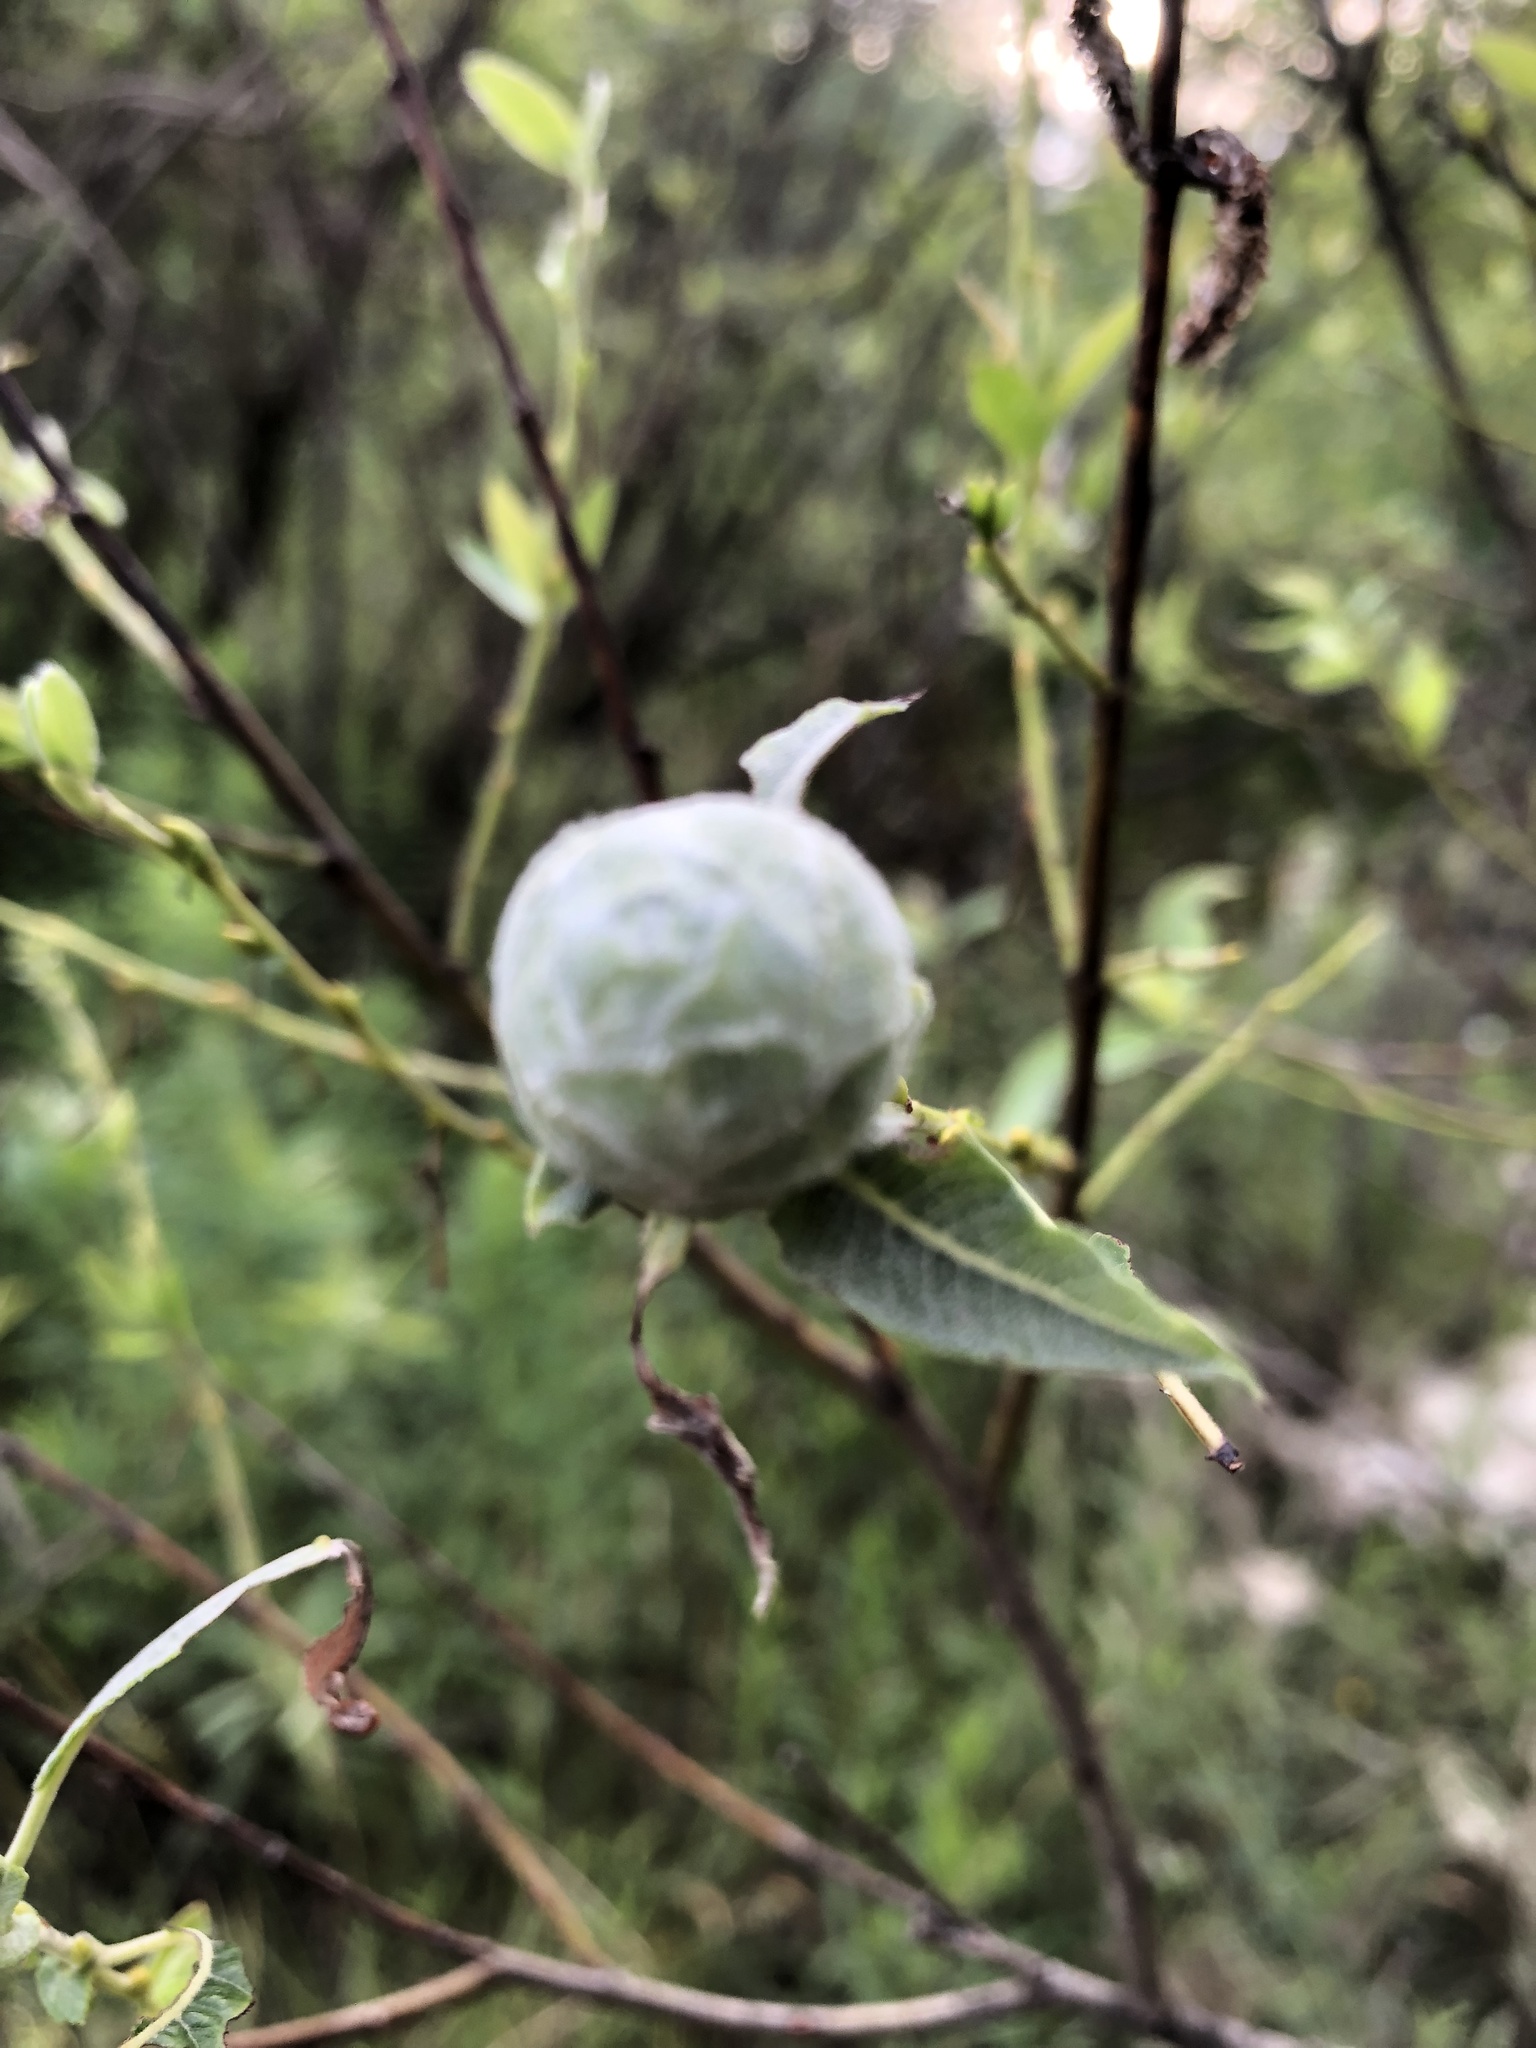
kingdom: Animalia
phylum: Arthropoda
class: Insecta
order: Diptera
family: Cecidomyiidae
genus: Rabdophaga
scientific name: Rabdophaga strobiloides
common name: Willow pinecone gall midge
